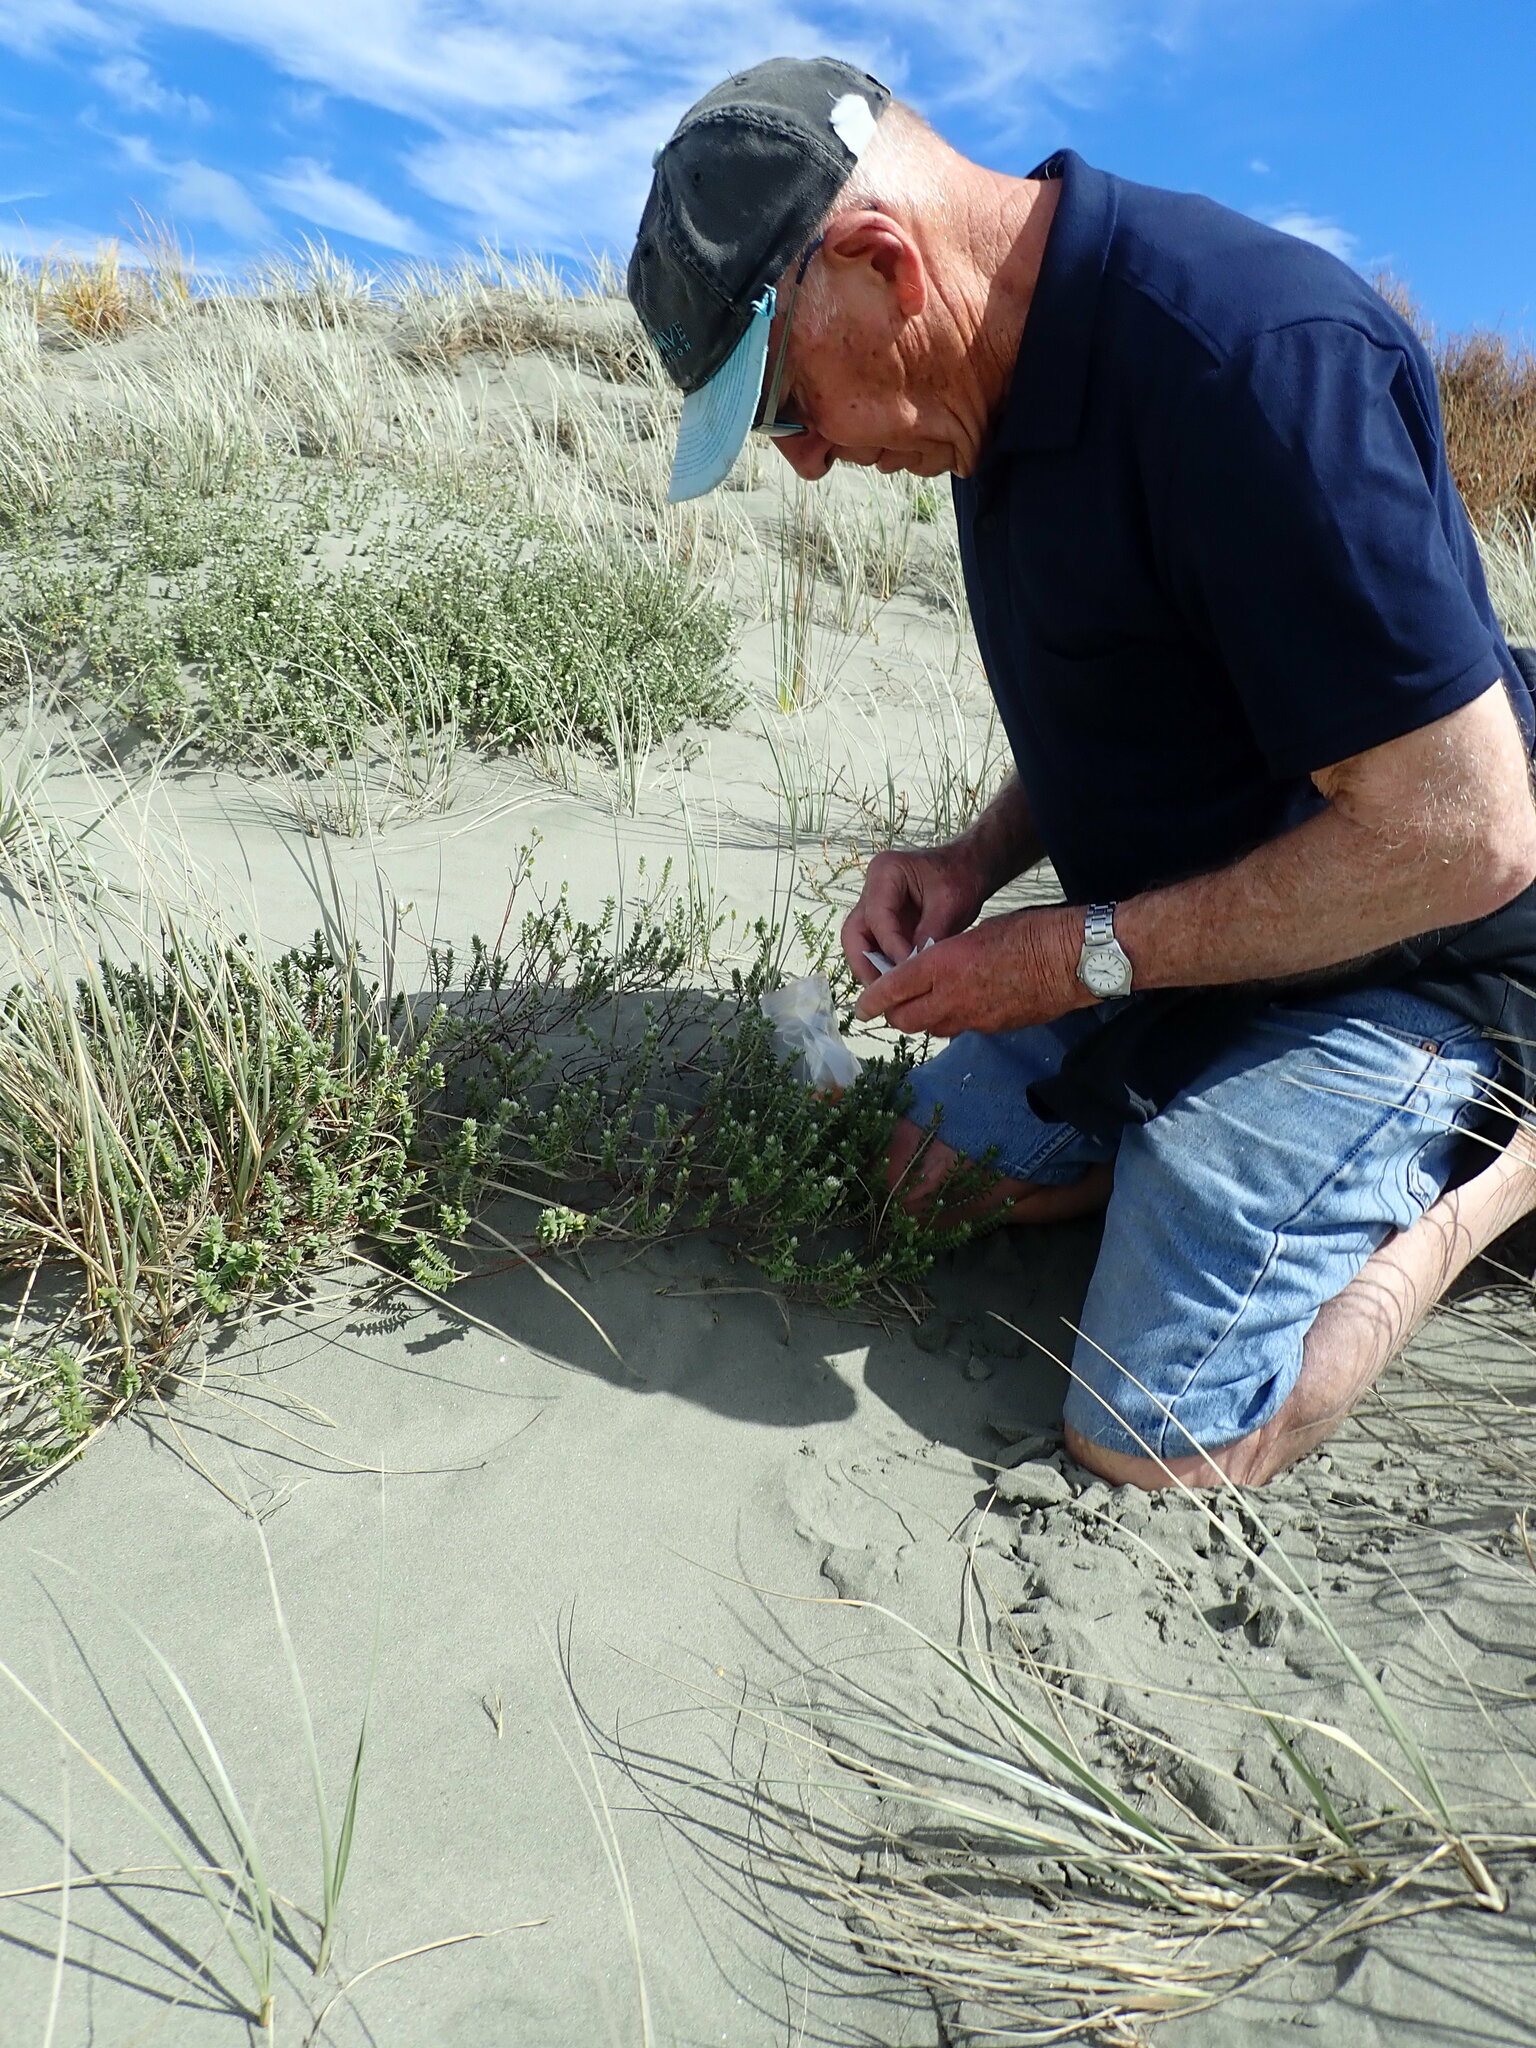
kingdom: Plantae
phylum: Tracheophyta
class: Magnoliopsida
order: Malvales
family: Thymelaeaceae
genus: Pimelea
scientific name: Pimelea villosa
